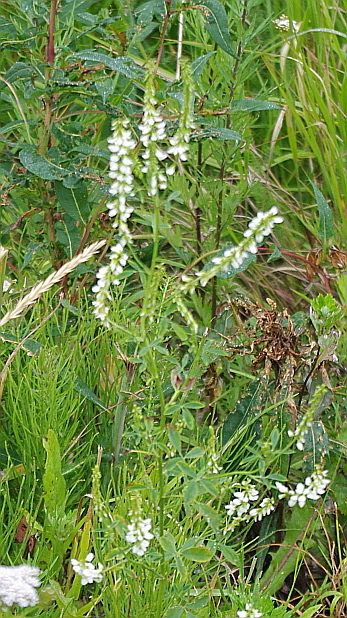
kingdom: Plantae
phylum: Tracheophyta
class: Magnoliopsida
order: Fabales
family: Fabaceae
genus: Melilotus
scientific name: Melilotus albus
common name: White melilot
